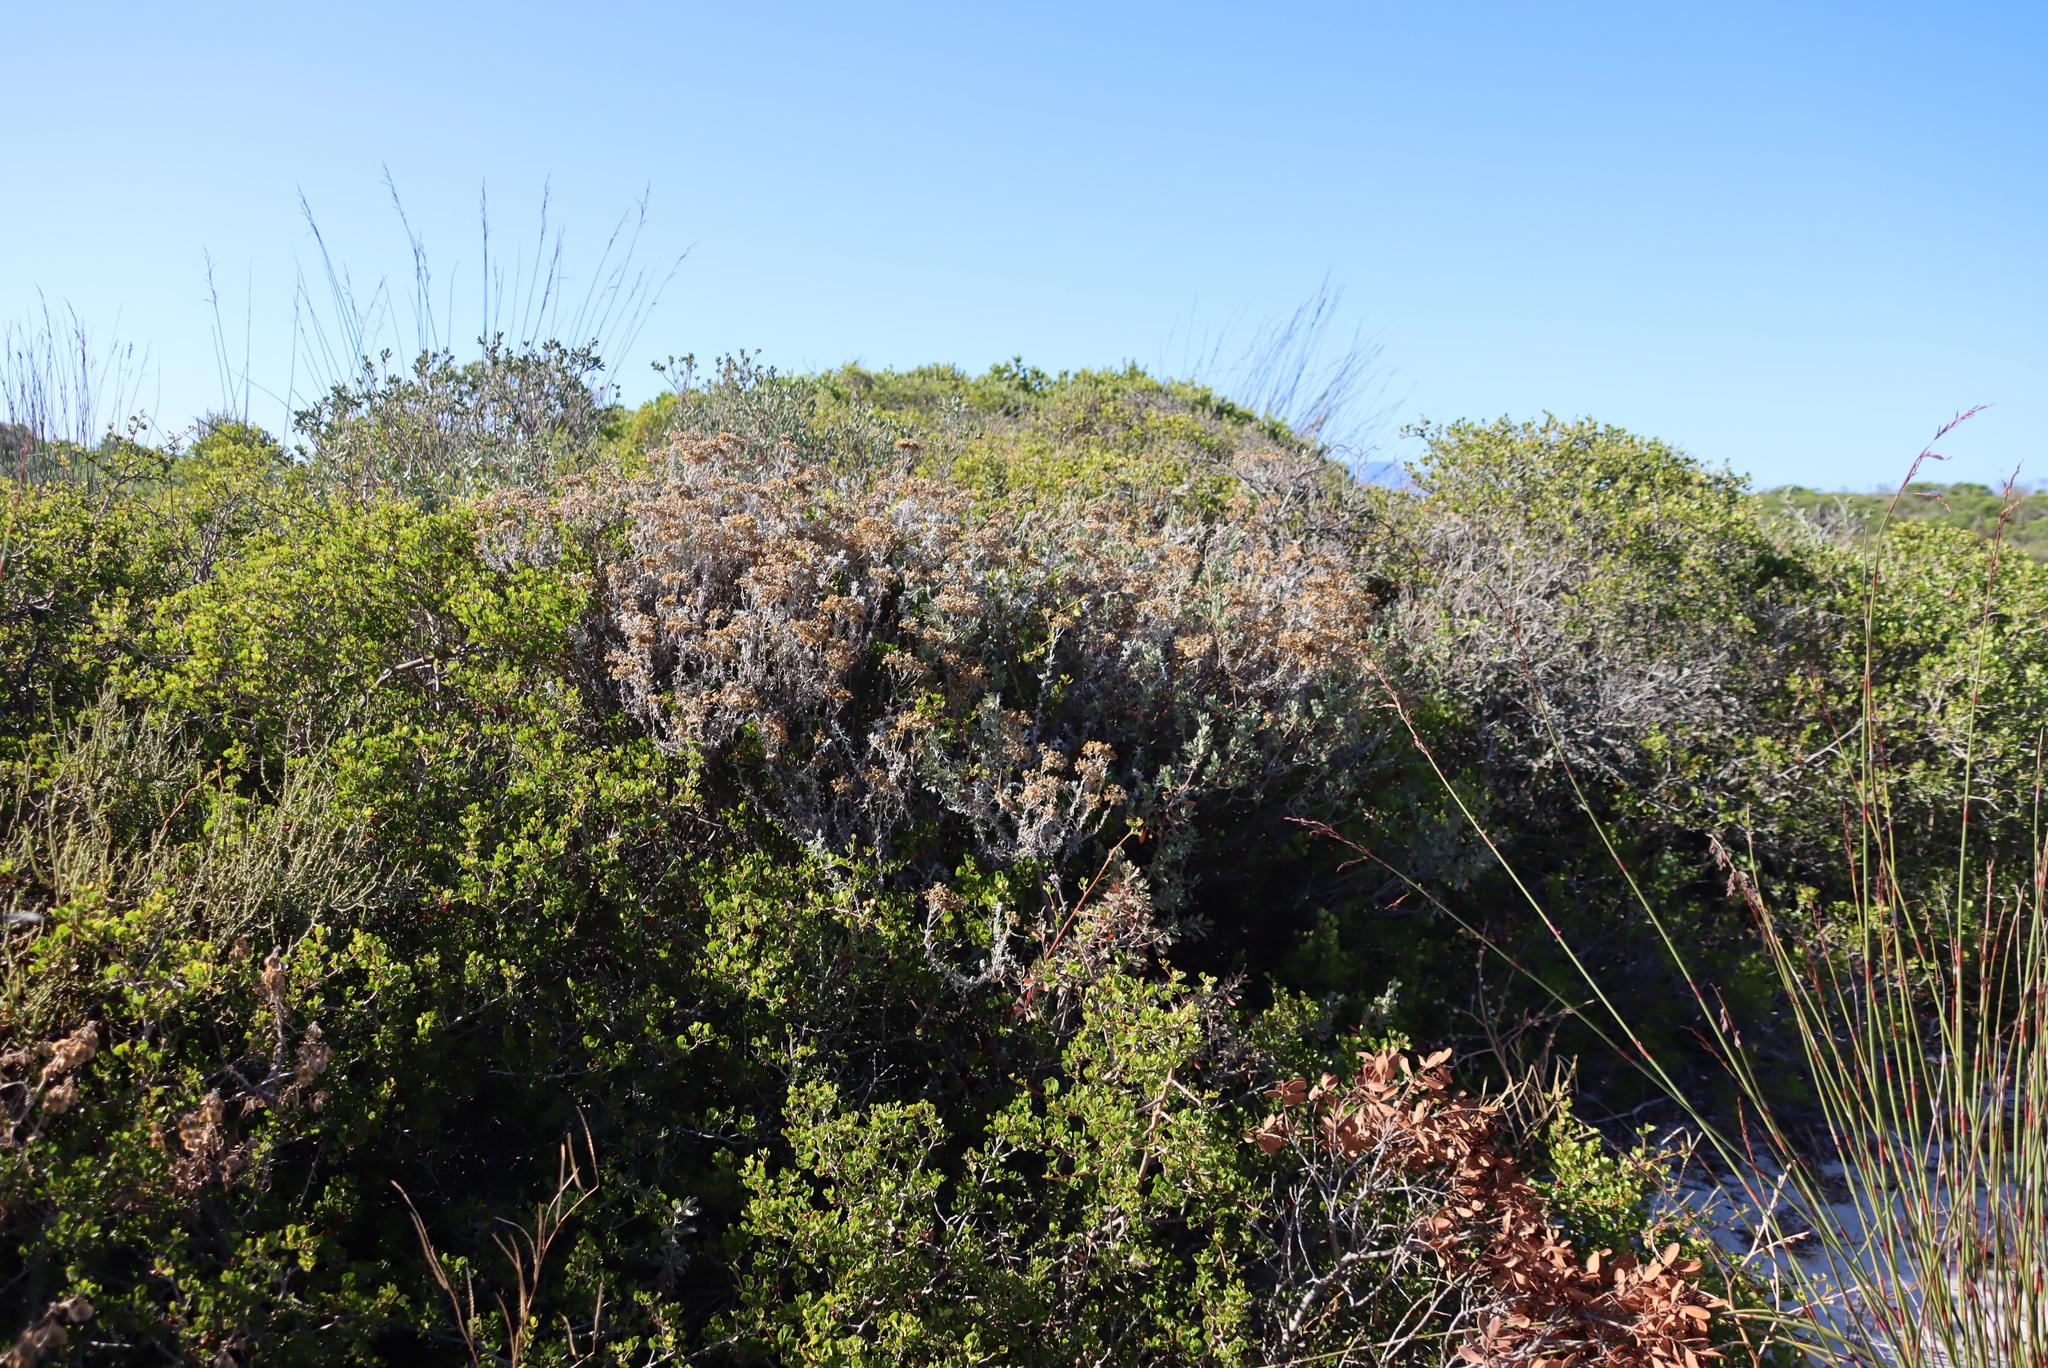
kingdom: Plantae
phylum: Tracheophyta
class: Magnoliopsida
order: Asterales
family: Asteraceae
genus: Helichrysum
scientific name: Helichrysum revolutum
